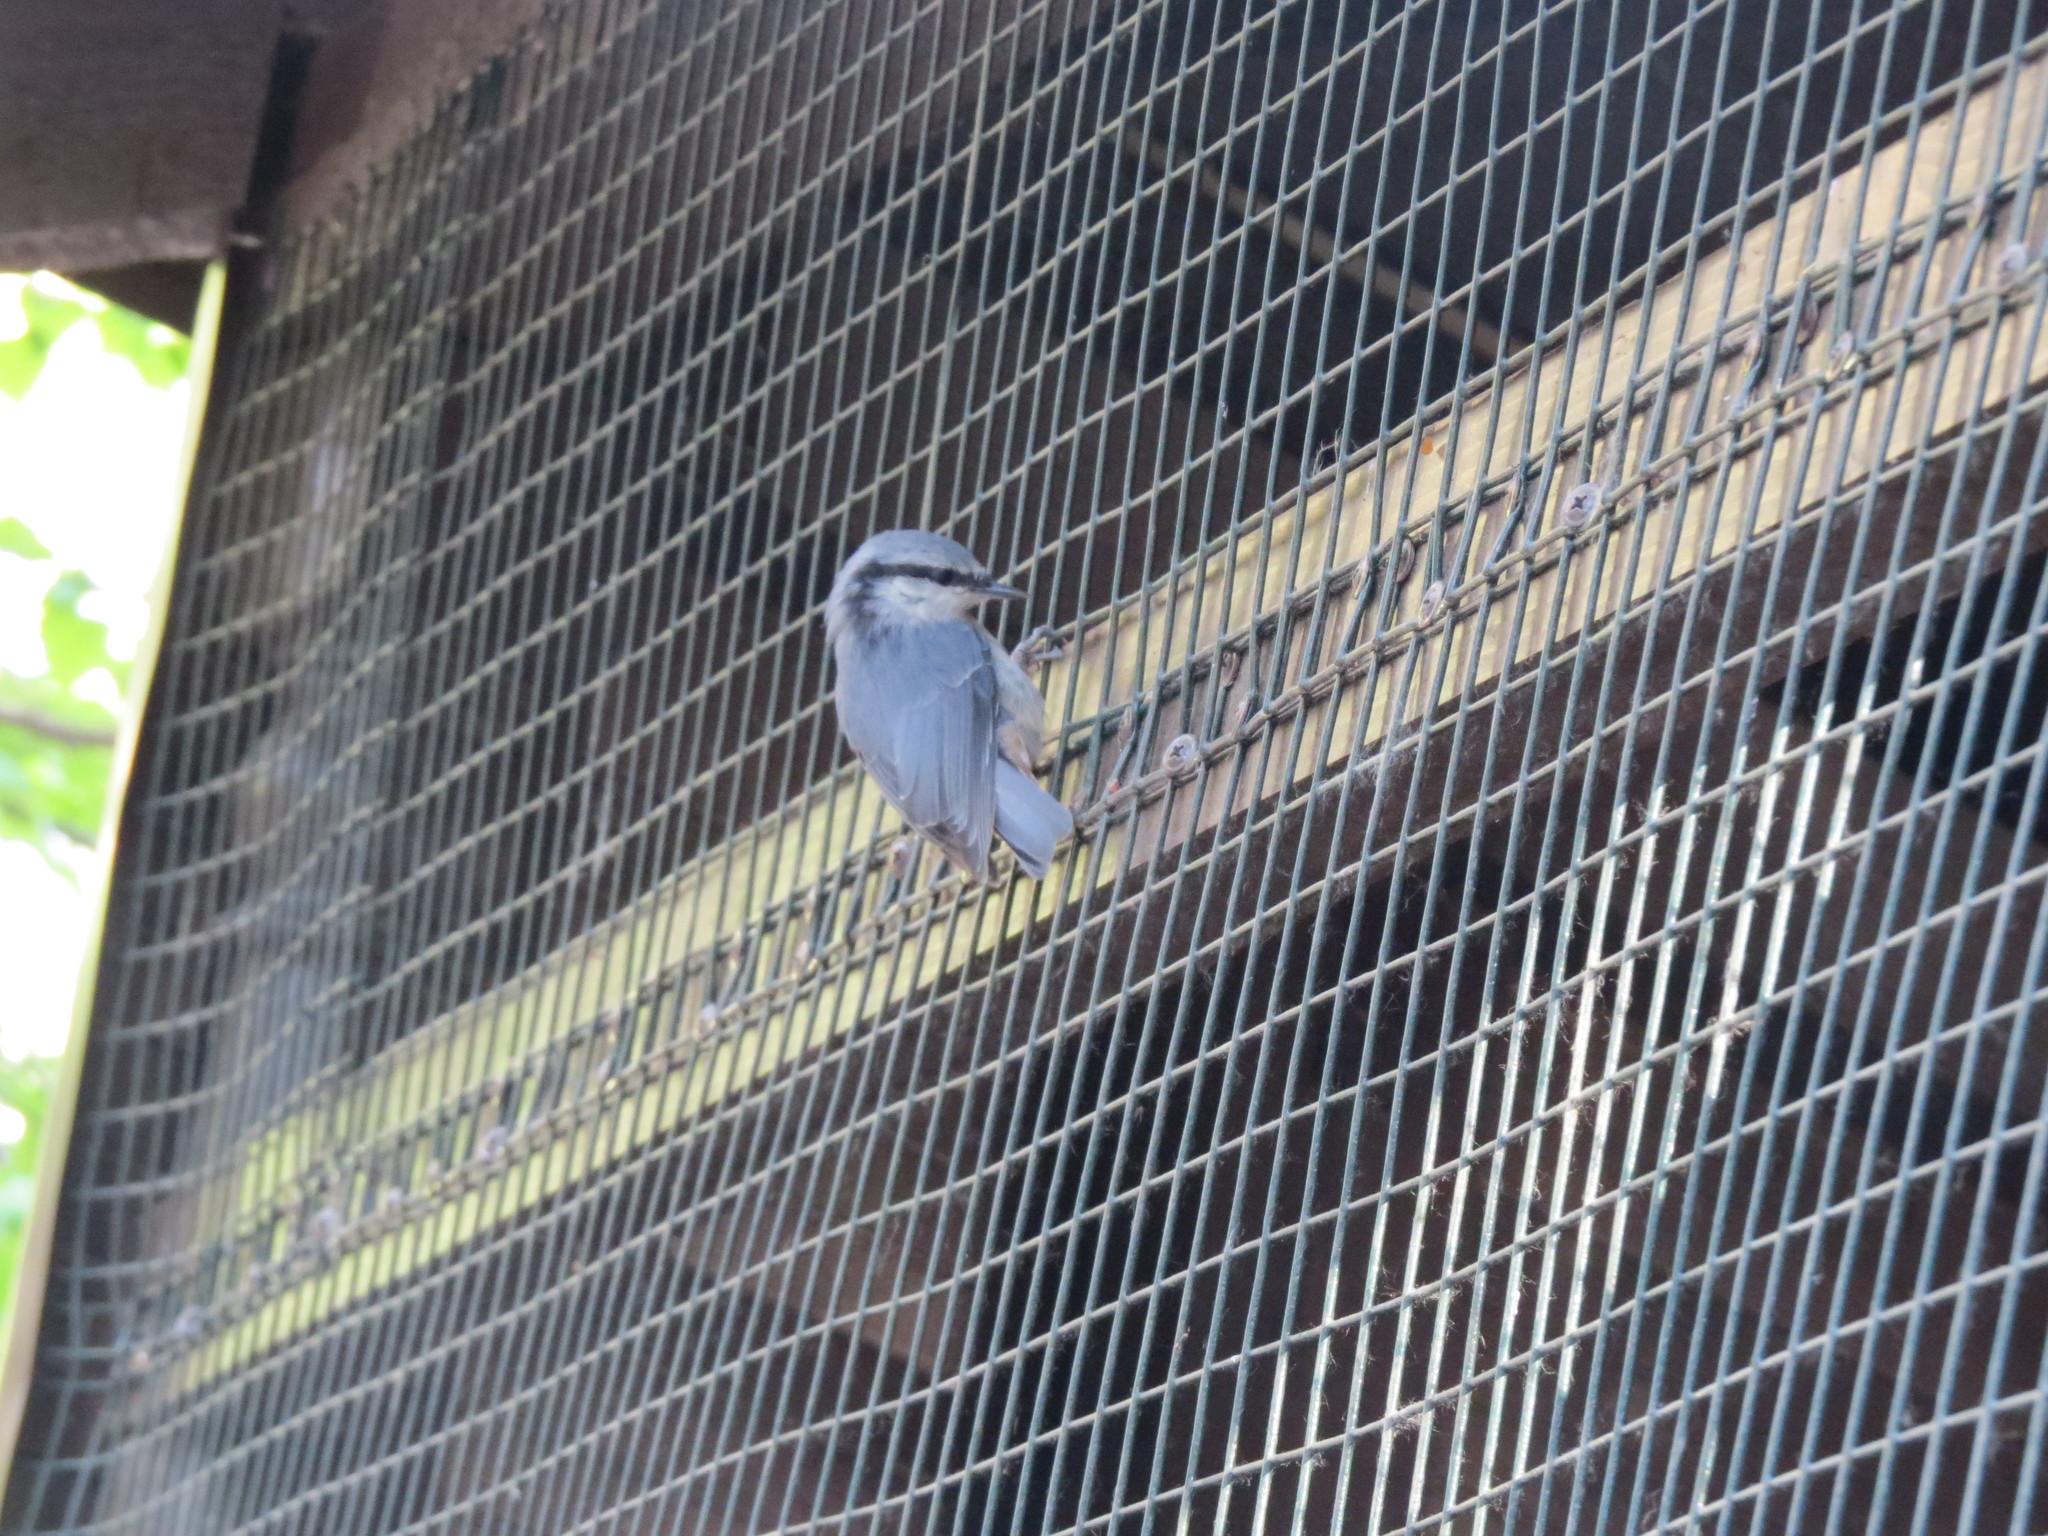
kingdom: Animalia
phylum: Chordata
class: Aves
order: Passeriformes
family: Sittidae
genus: Sitta
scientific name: Sitta europaea
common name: Eurasian nuthatch
